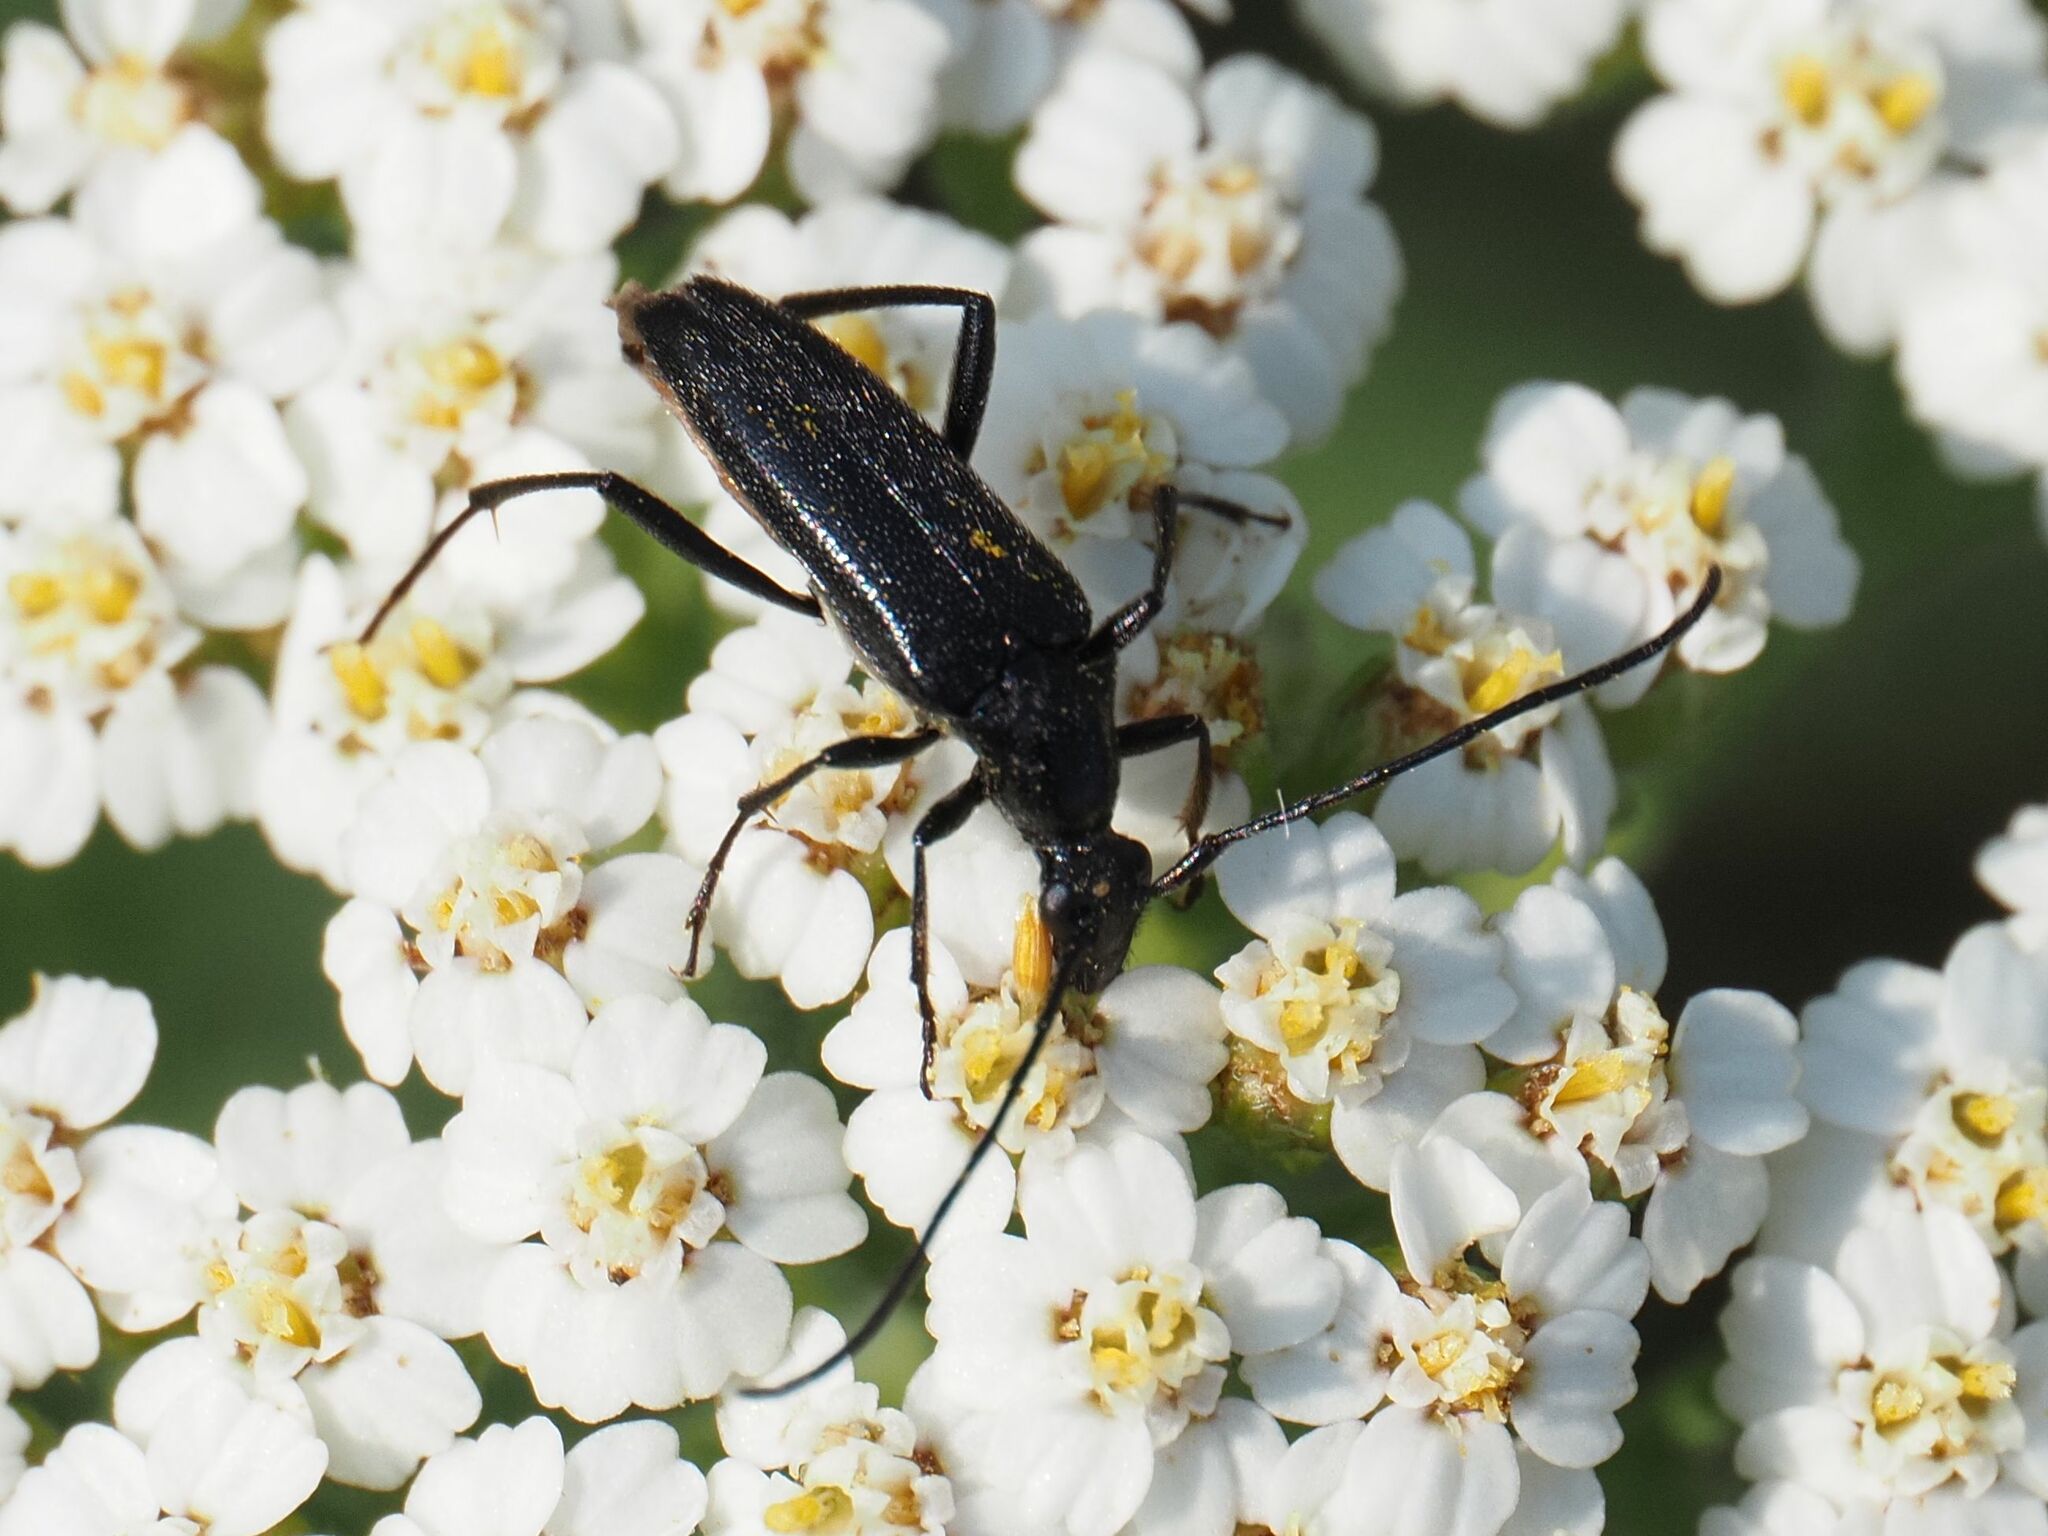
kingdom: Animalia
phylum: Arthropoda
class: Insecta
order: Coleoptera
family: Cerambycidae
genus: Stenurella
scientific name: Stenurella nigra
